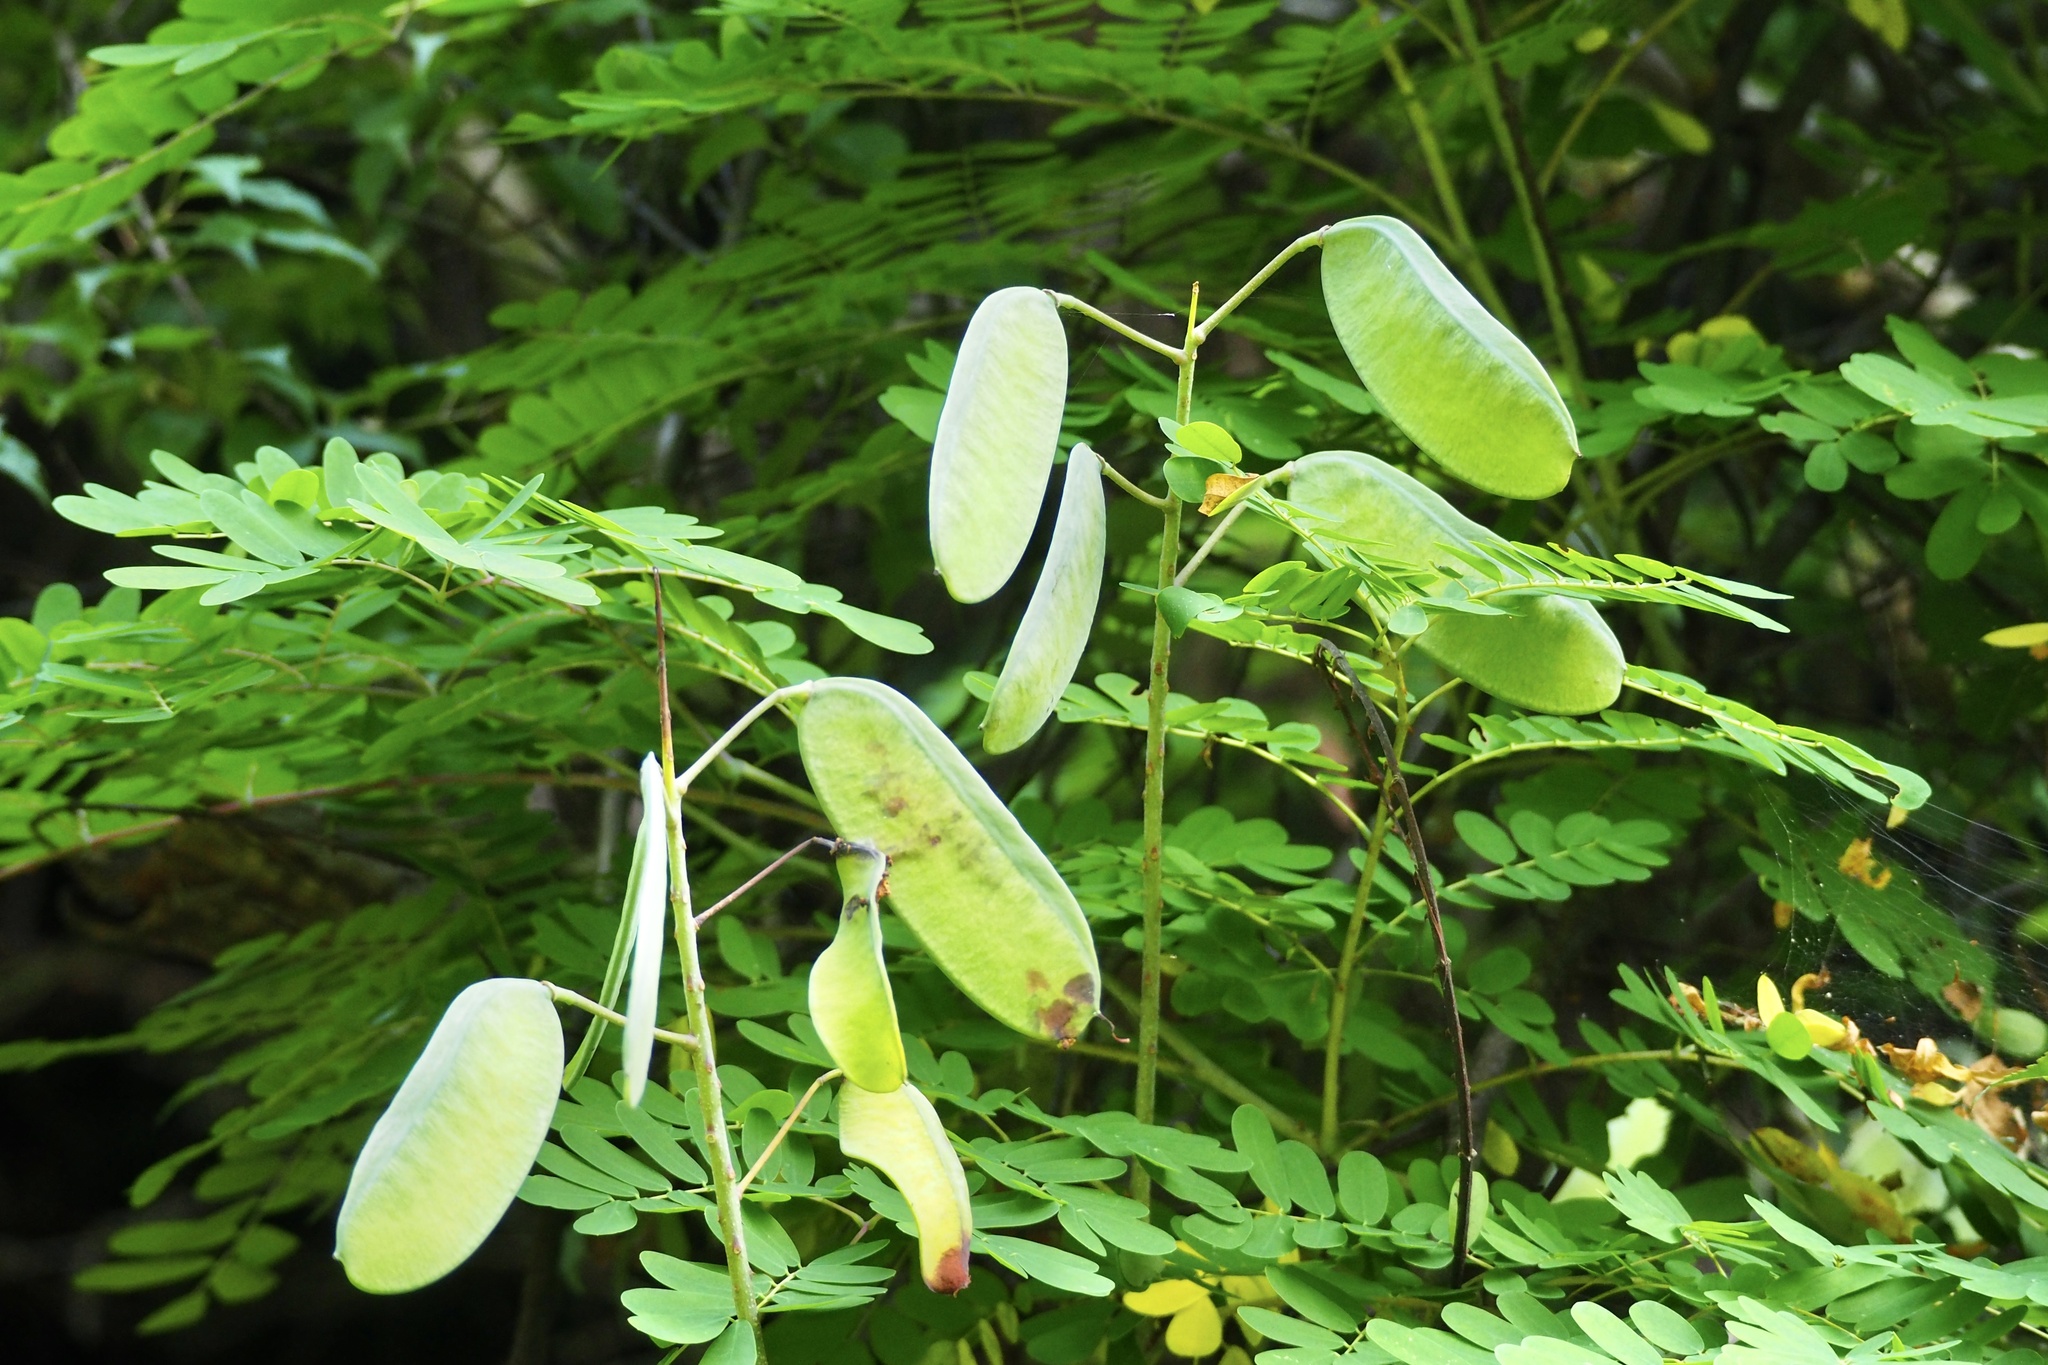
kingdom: Plantae
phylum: Tracheophyta
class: Magnoliopsida
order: Fabales
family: Fabaceae
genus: Biancaea
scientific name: Biancaea decapetala
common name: Cat's claw
